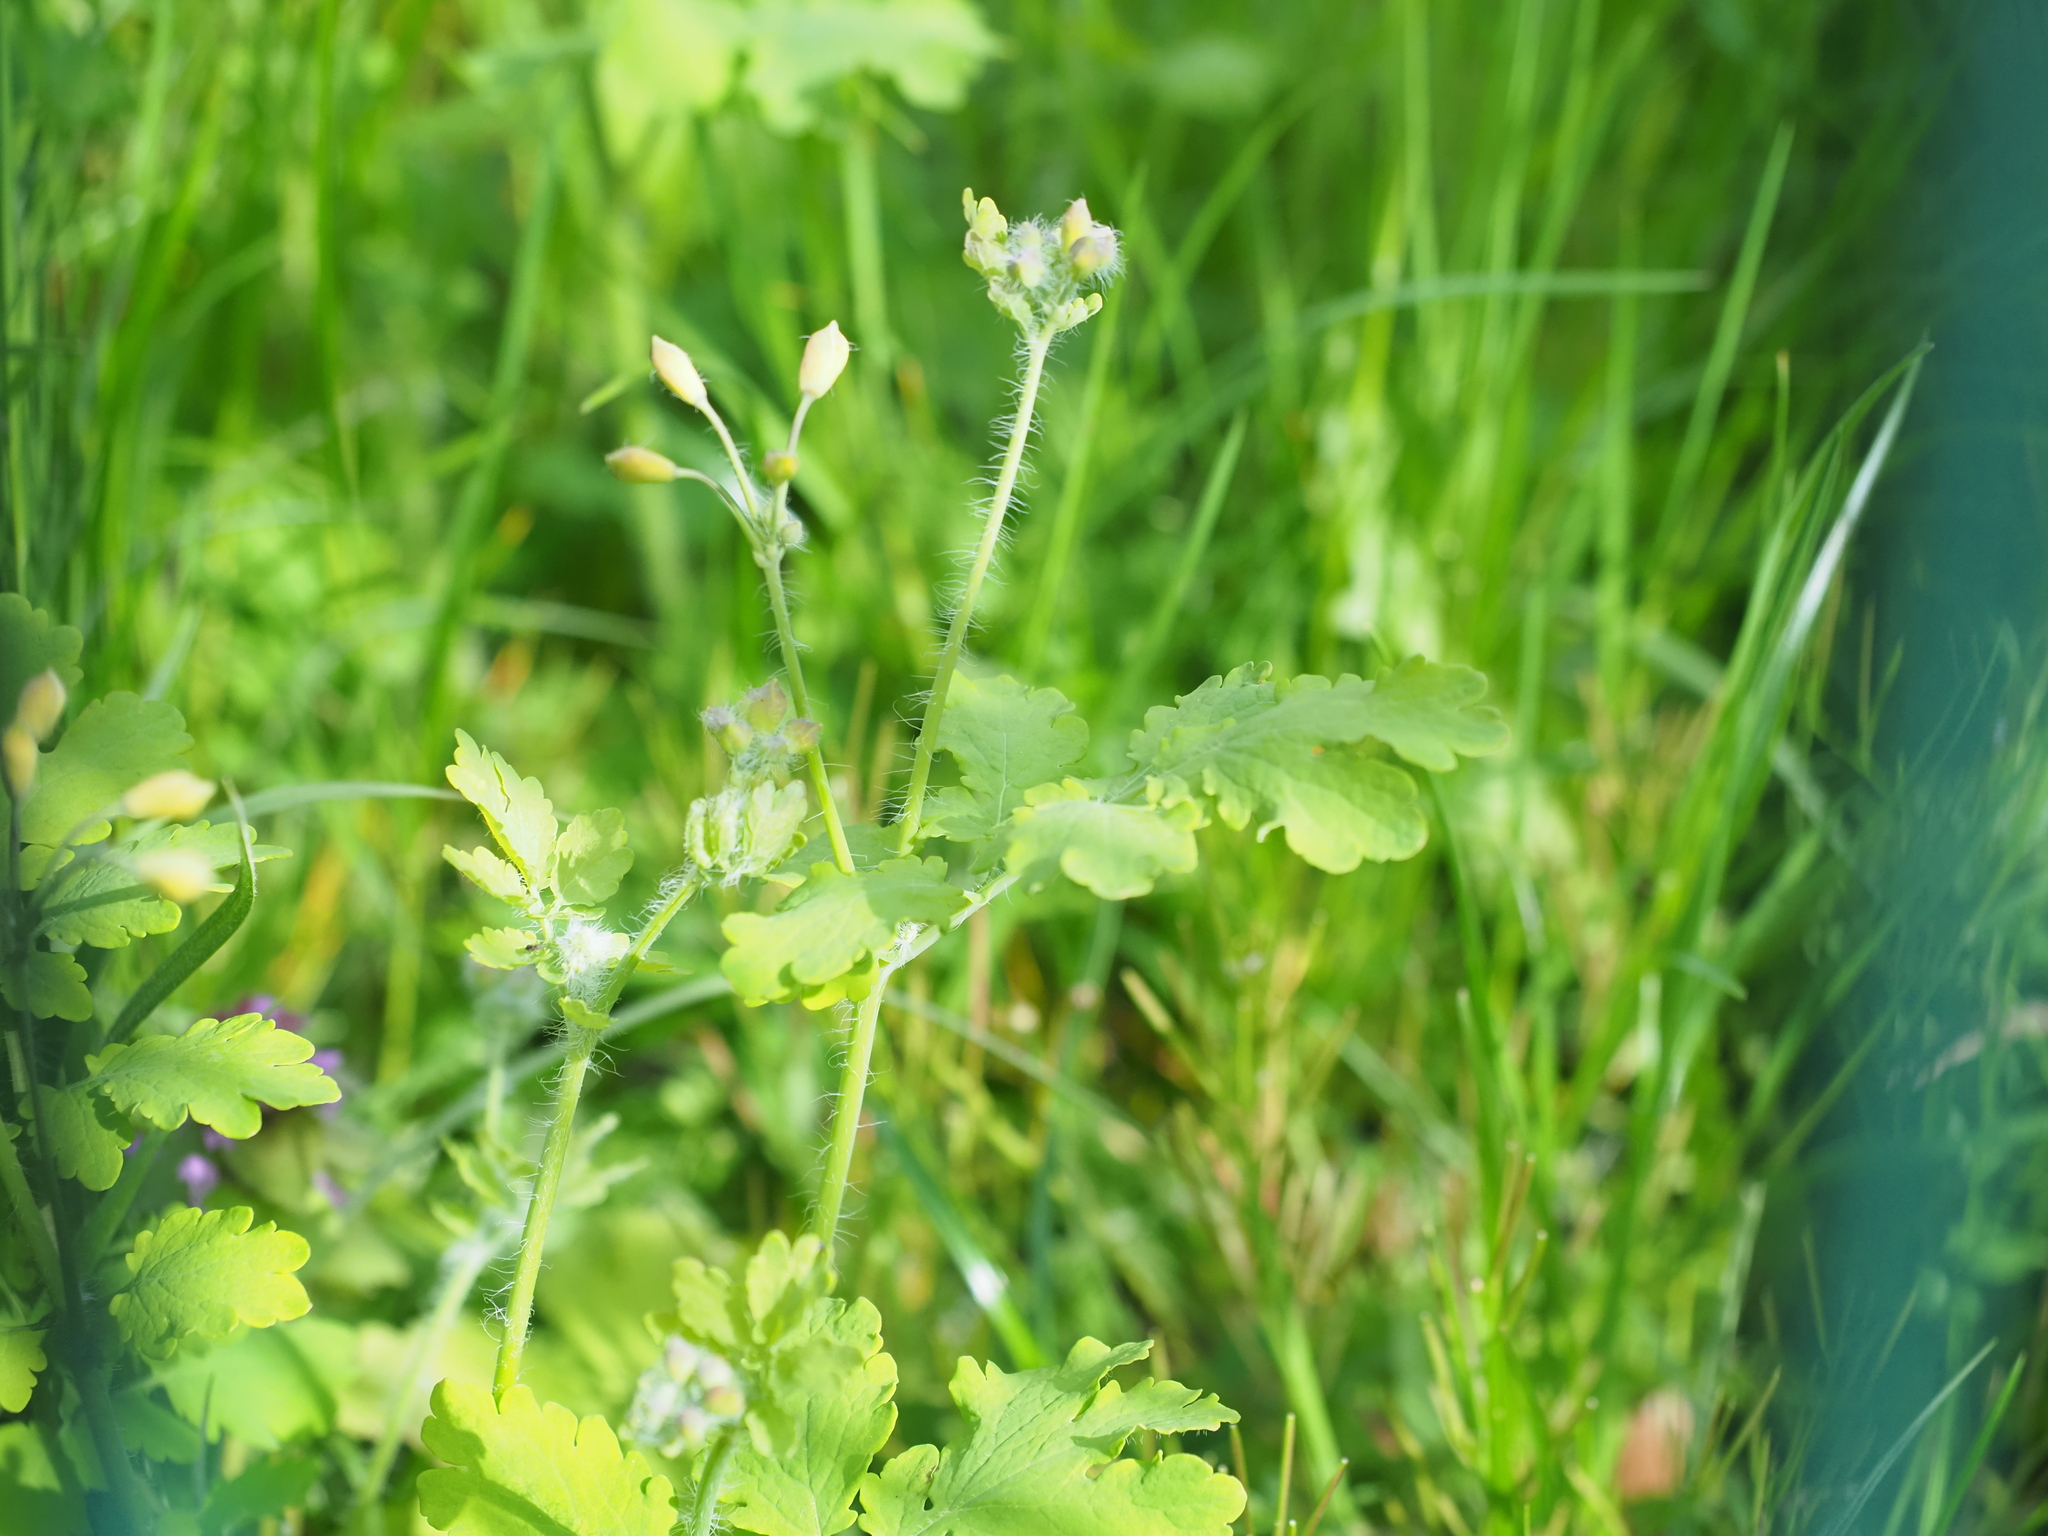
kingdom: Plantae
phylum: Tracheophyta
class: Magnoliopsida
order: Ranunculales
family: Papaveraceae
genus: Chelidonium
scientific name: Chelidonium majus
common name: Greater celandine
